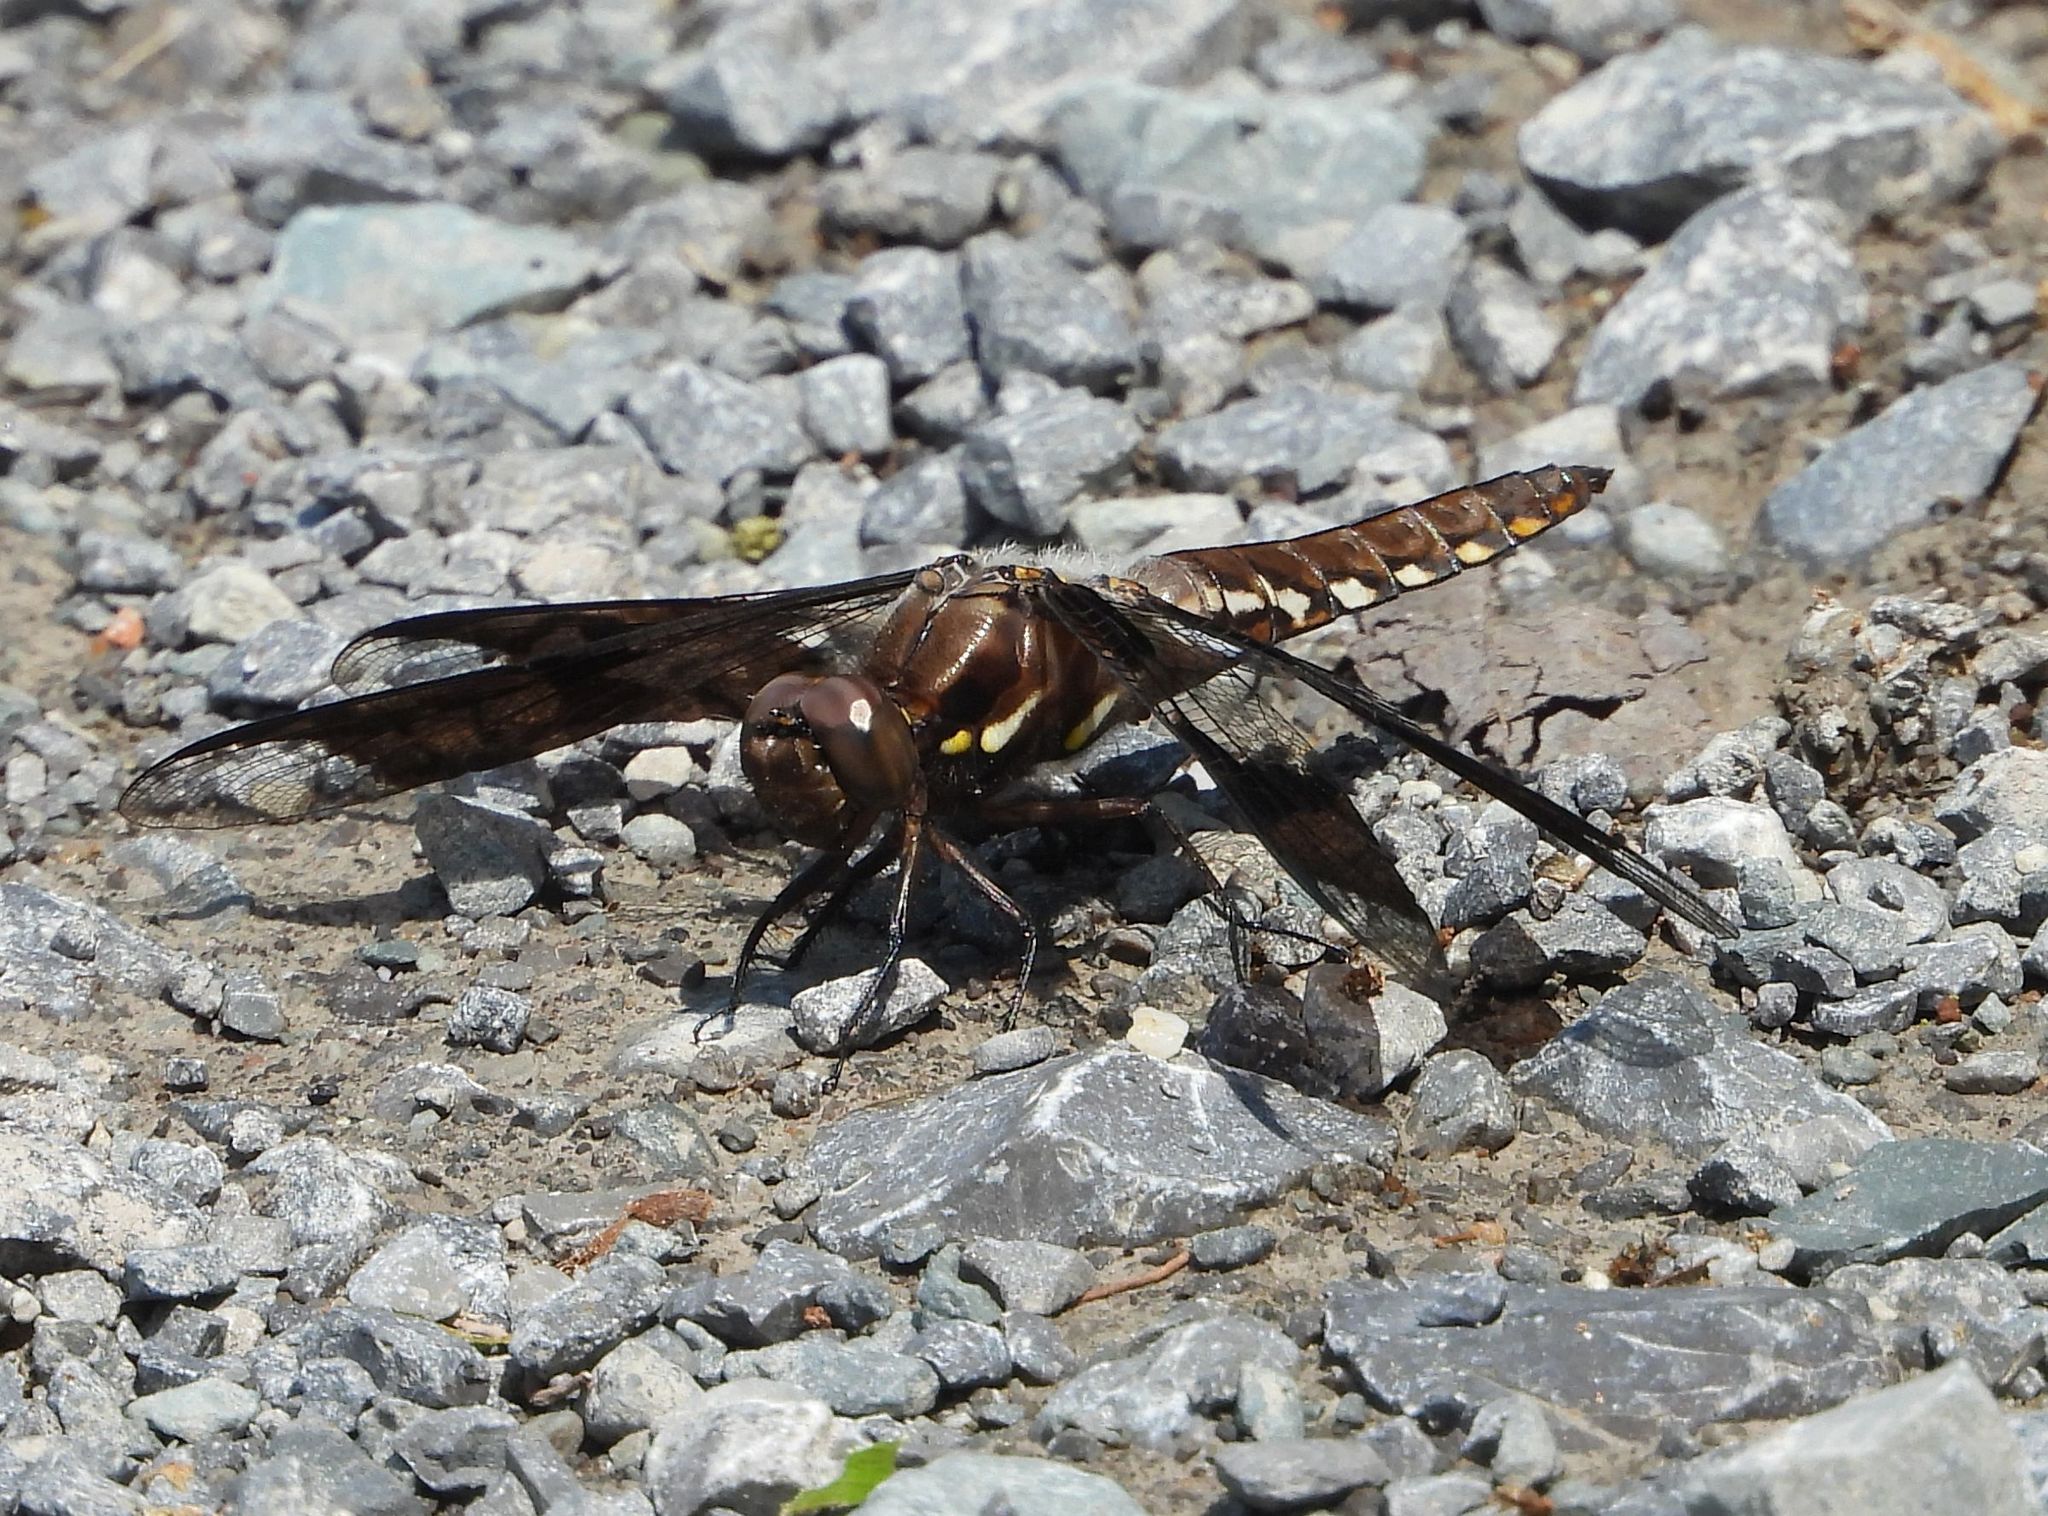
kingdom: Animalia
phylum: Arthropoda
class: Insecta
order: Odonata
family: Libellulidae
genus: Plathemis
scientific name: Plathemis lydia
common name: Common whitetail
